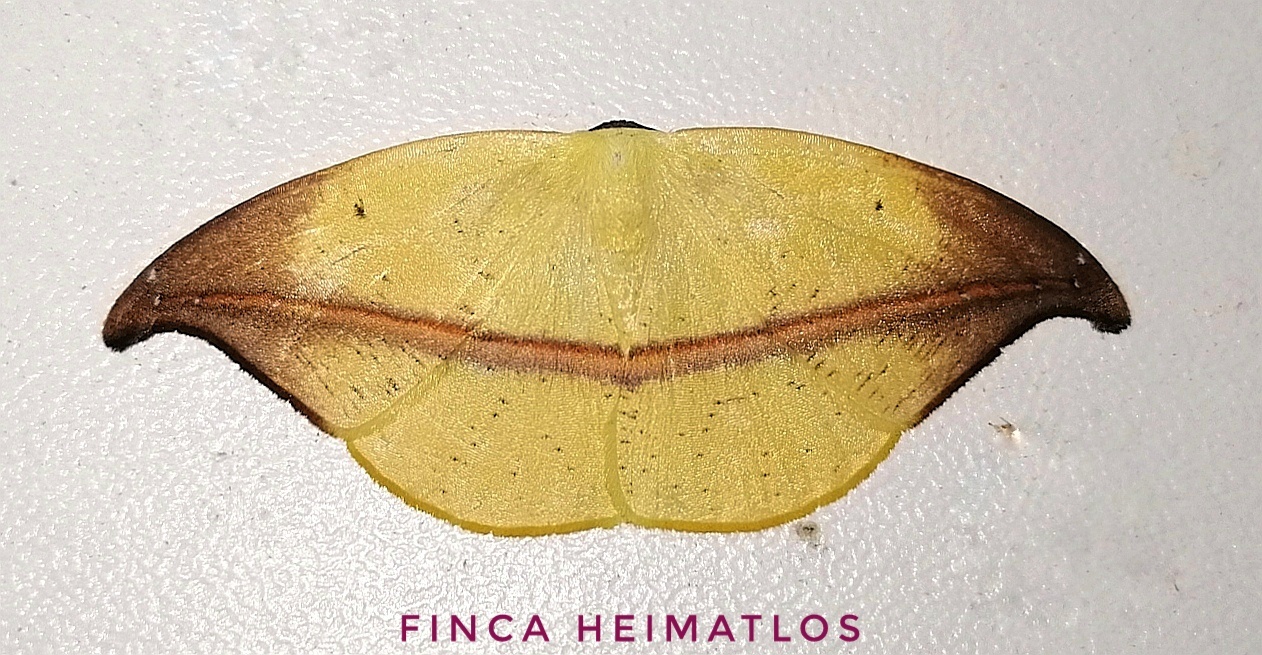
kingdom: Animalia
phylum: Arthropoda
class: Insecta
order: Lepidoptera
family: Geometridae
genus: Patalene
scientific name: Patalene semibrunnea
